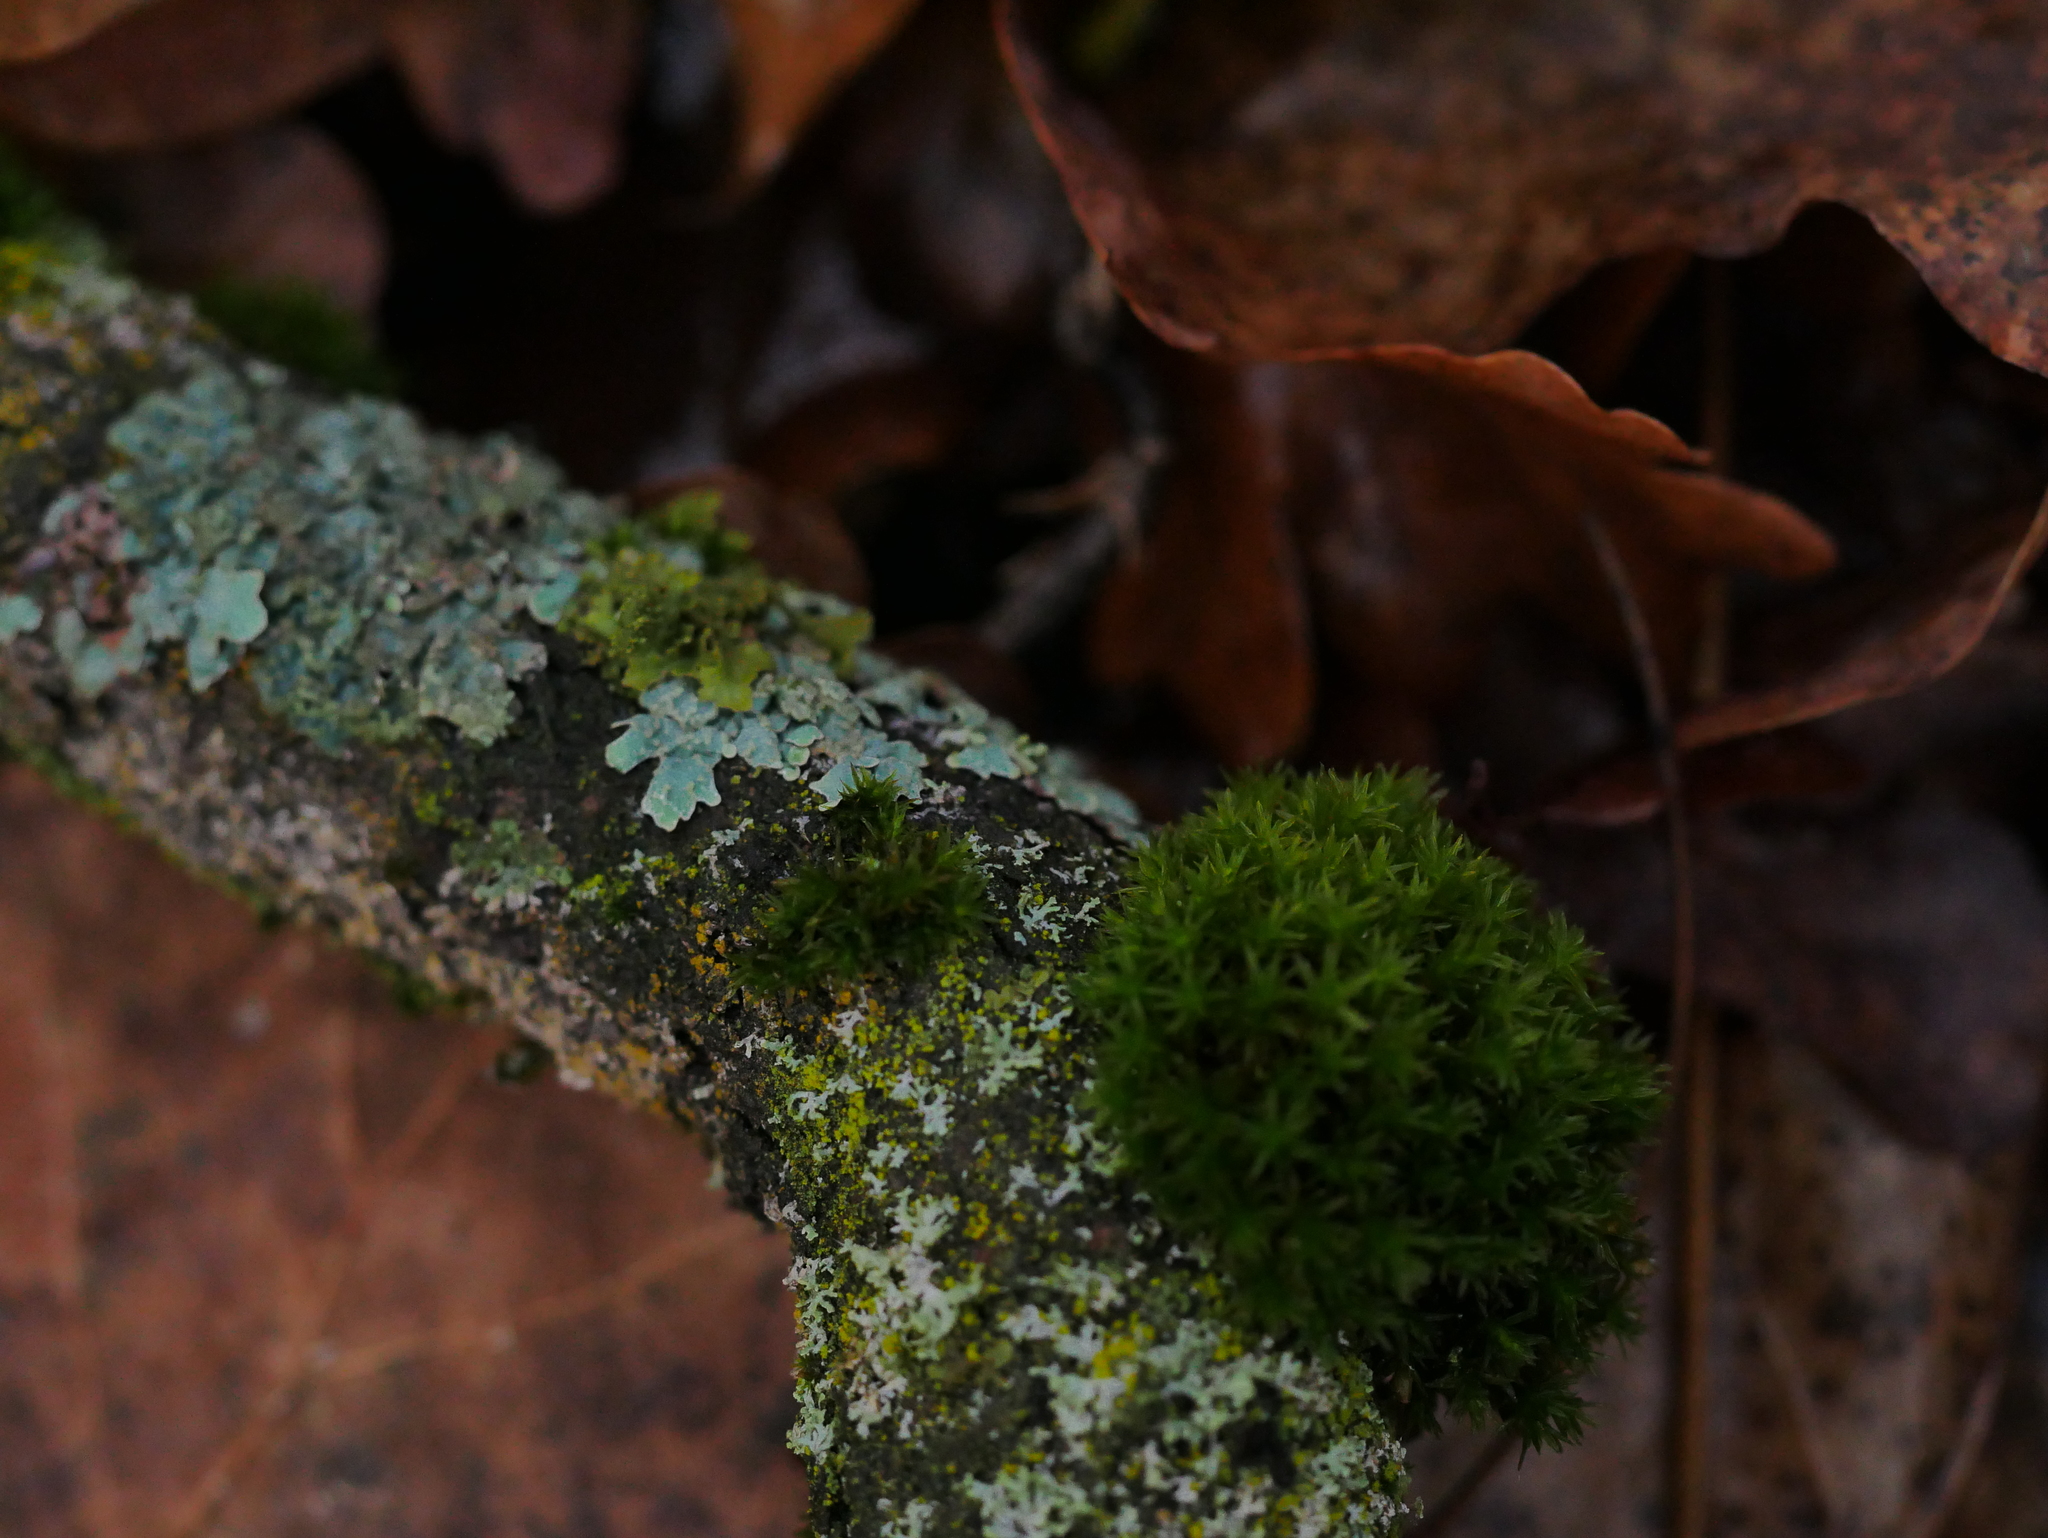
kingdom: Fungi
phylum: Ascomycota
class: Lecanoromycetes
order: Lecanorales
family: Parmeliaceae
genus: Parmelia
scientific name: Parmelia sulcata
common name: Netted shield lichen
